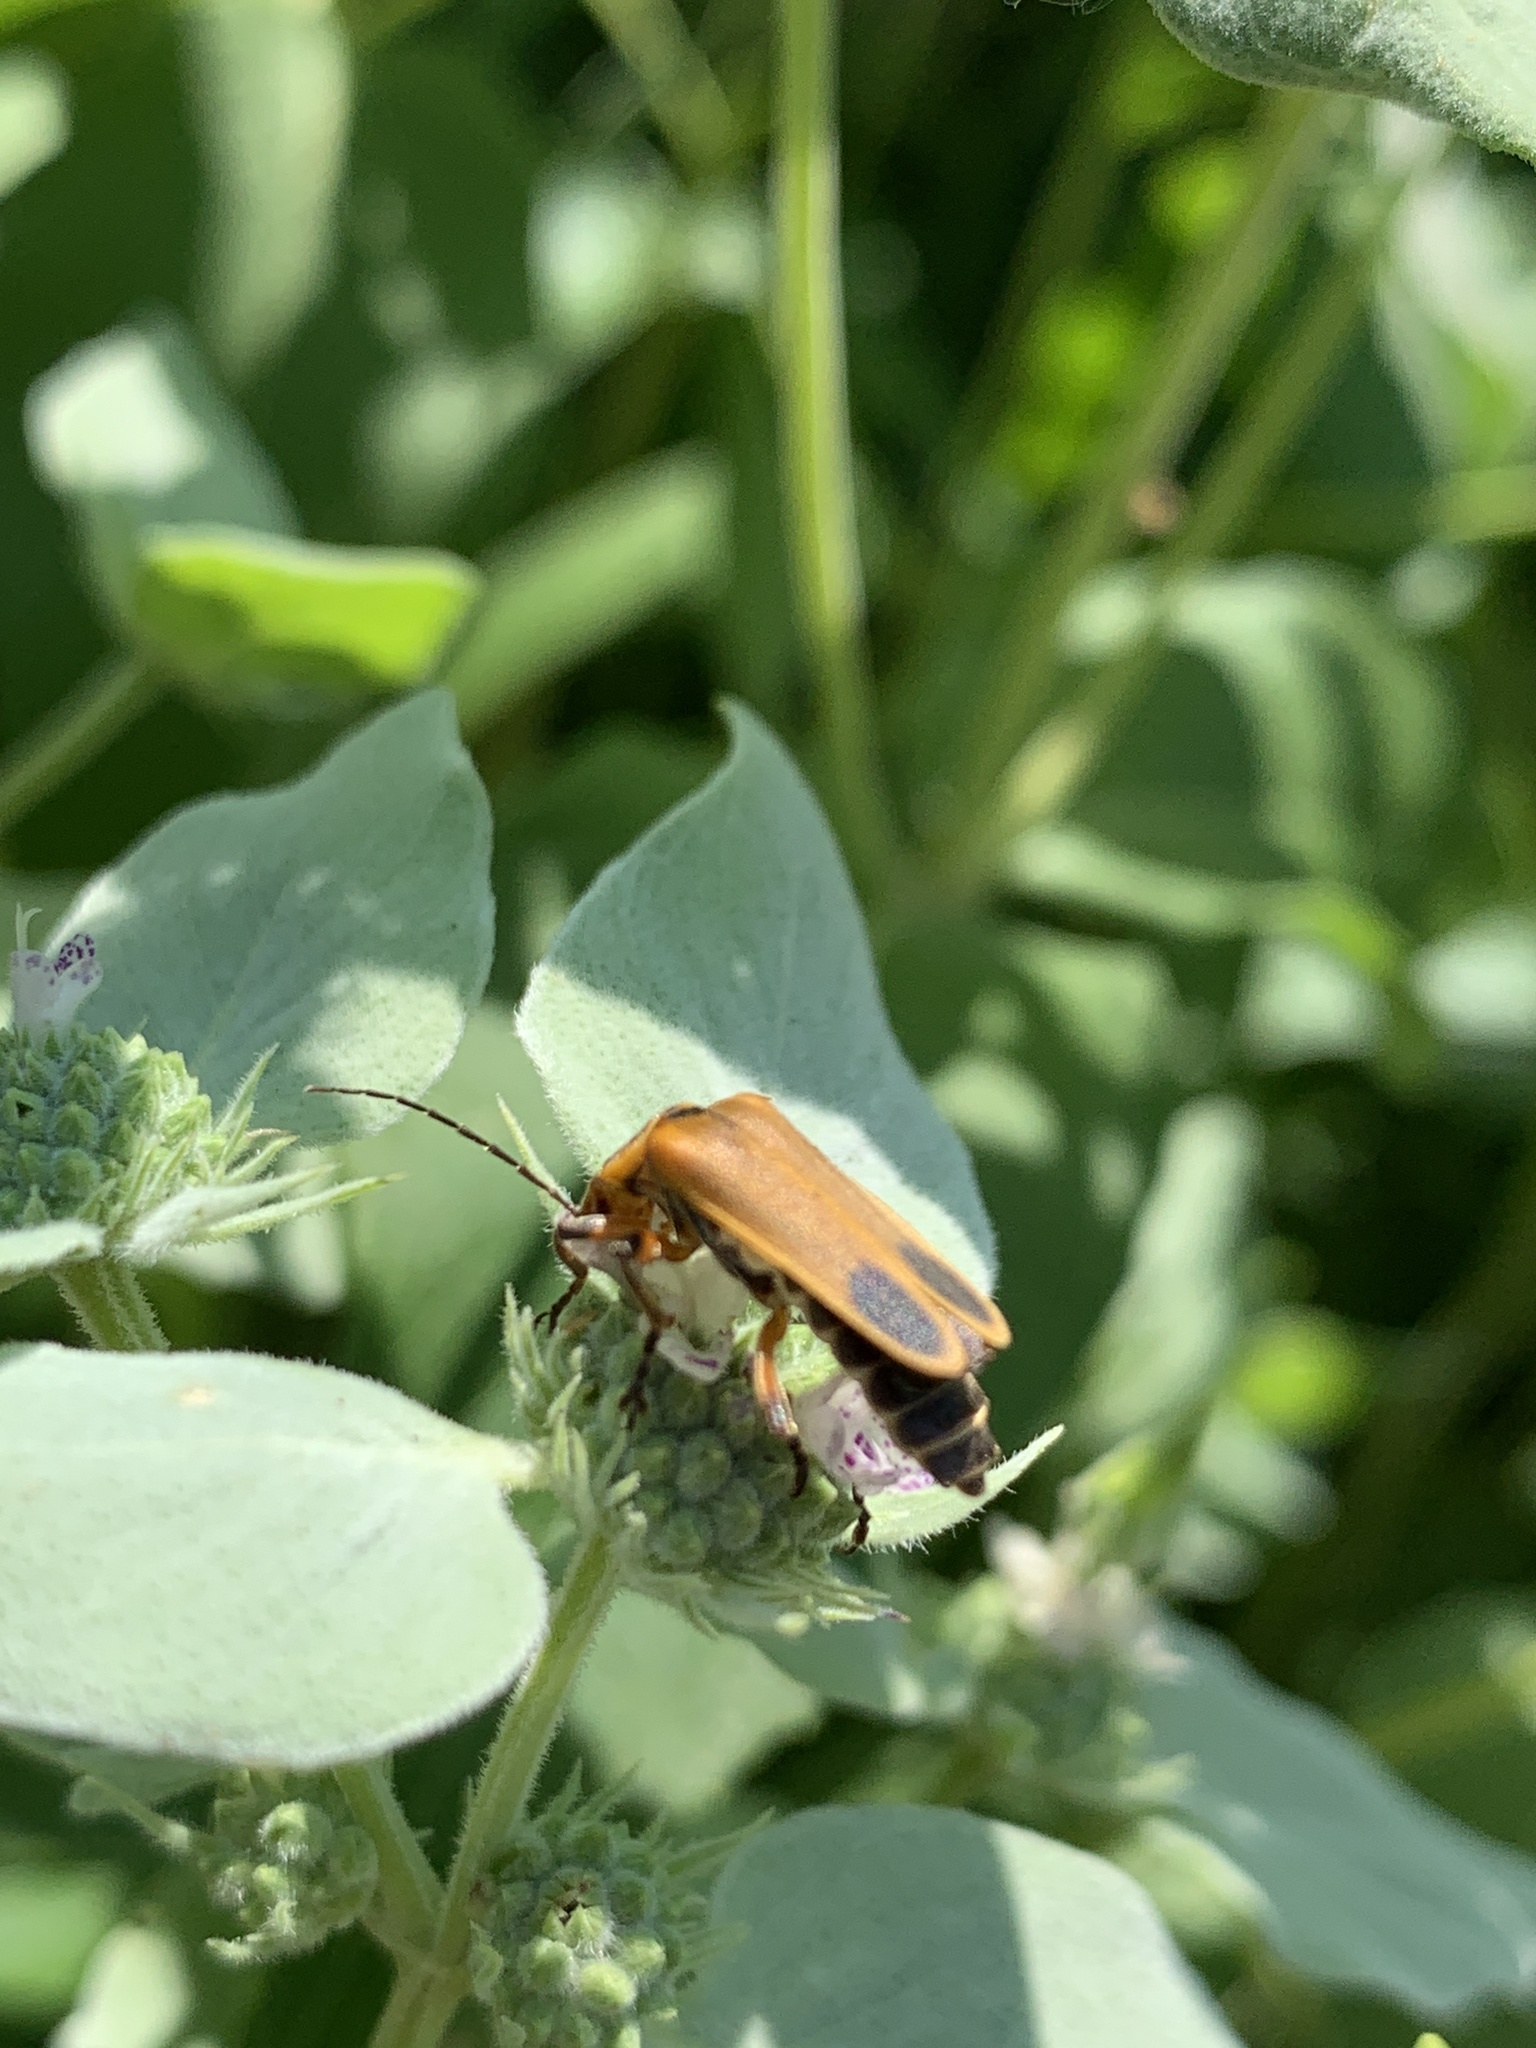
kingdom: Animalia
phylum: Arthropoda
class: Insecta
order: Coleoptera
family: Cantharidae
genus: Chauliognathus
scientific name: Chauliognathus marginatus
